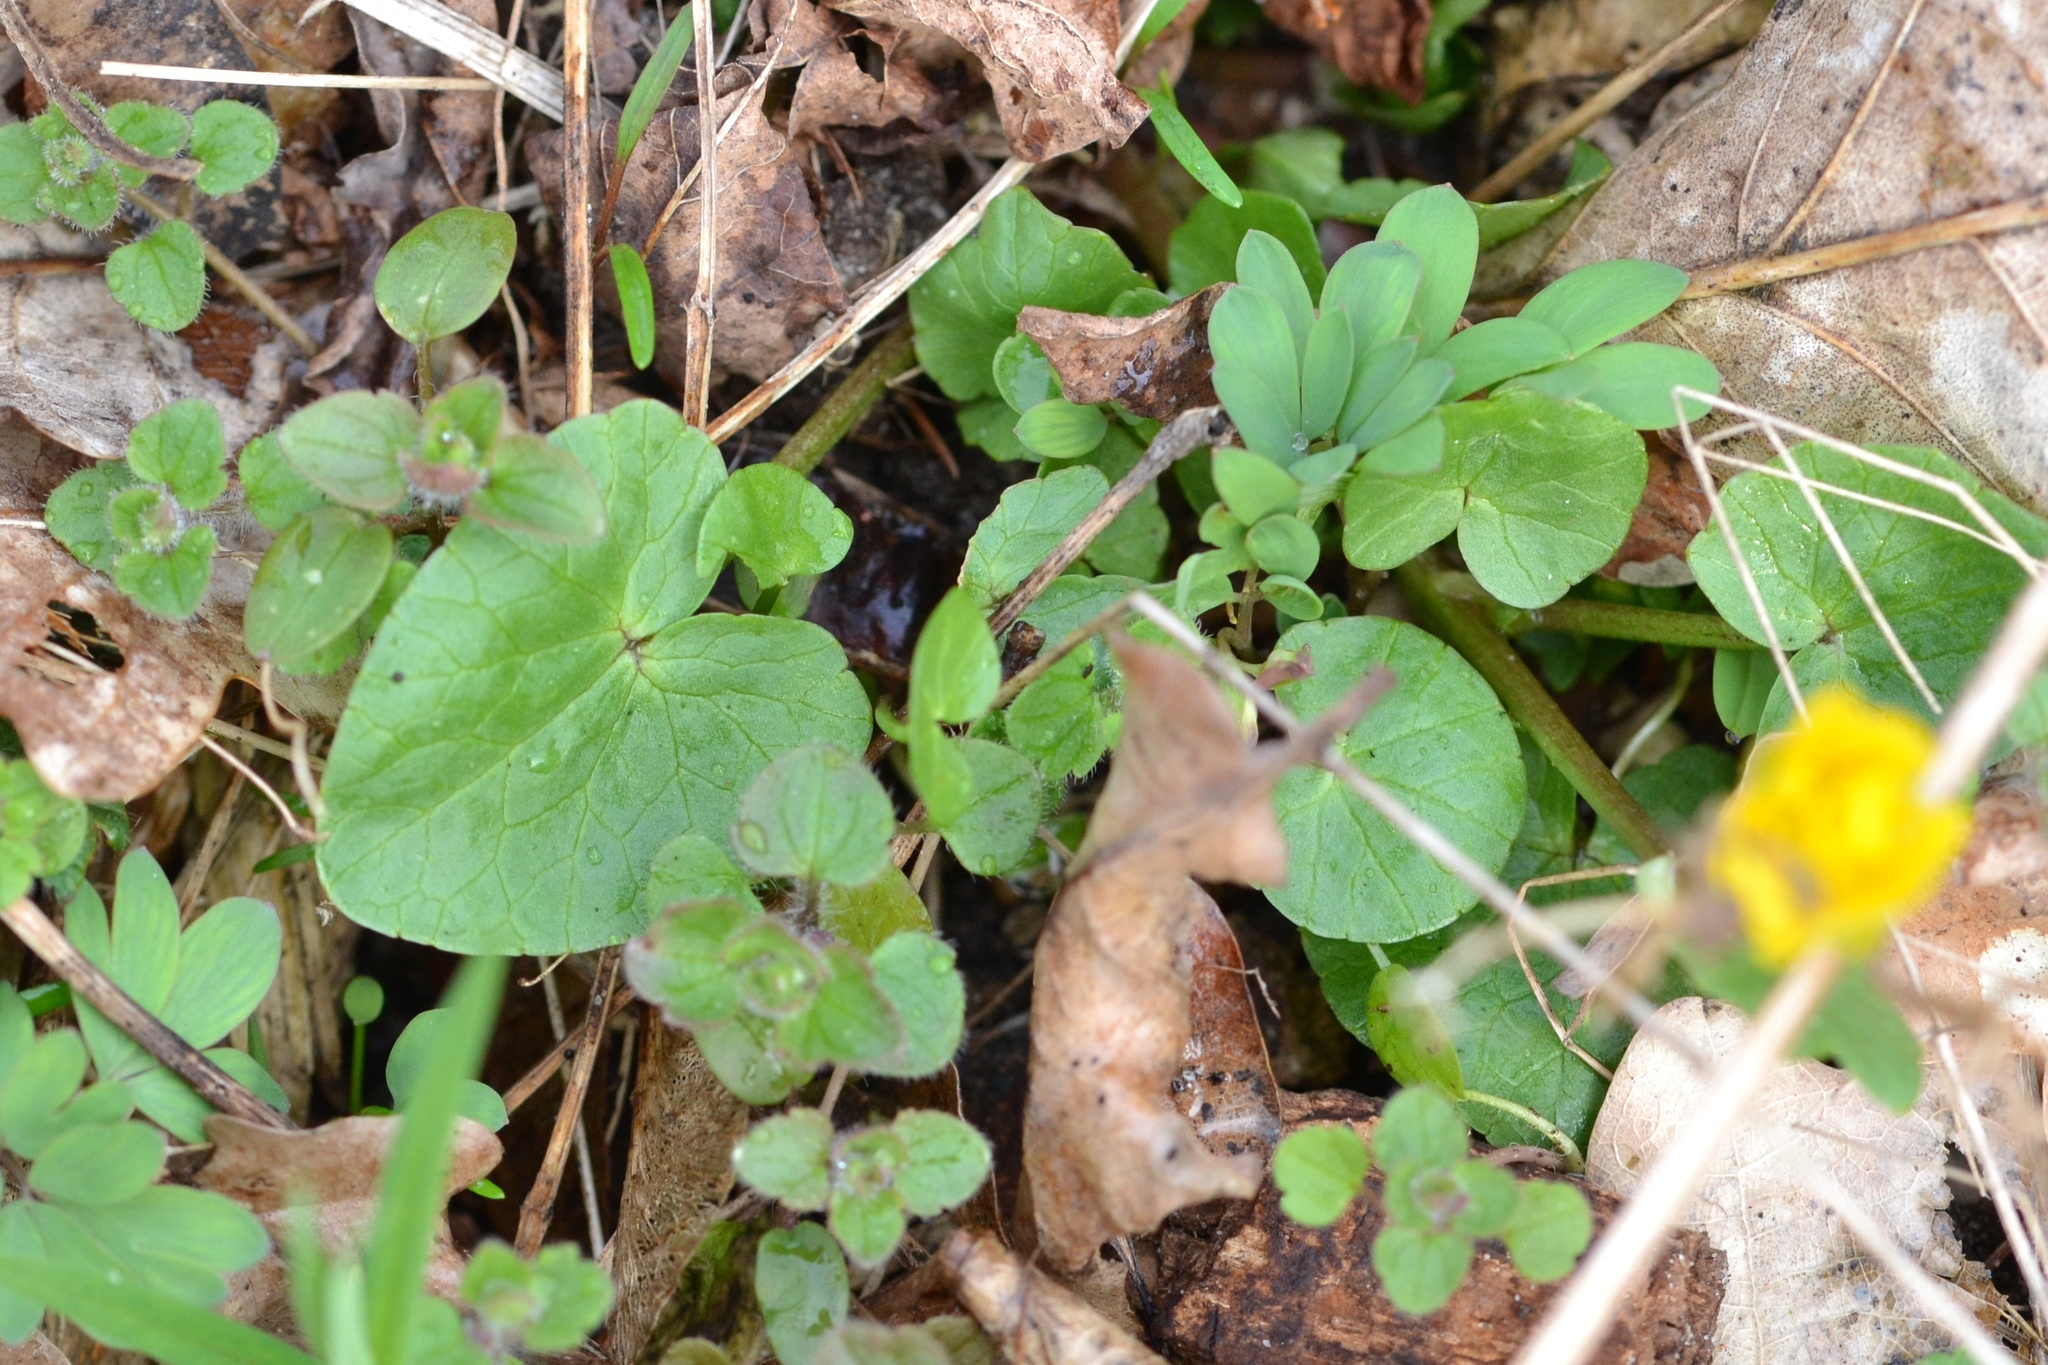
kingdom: Plantae
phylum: Tracheophyta
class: Magnoliopsida
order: Ranunculales
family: Ranunculaceae
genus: Ficaria
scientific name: Ficaria verna
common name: Lesser celandine
